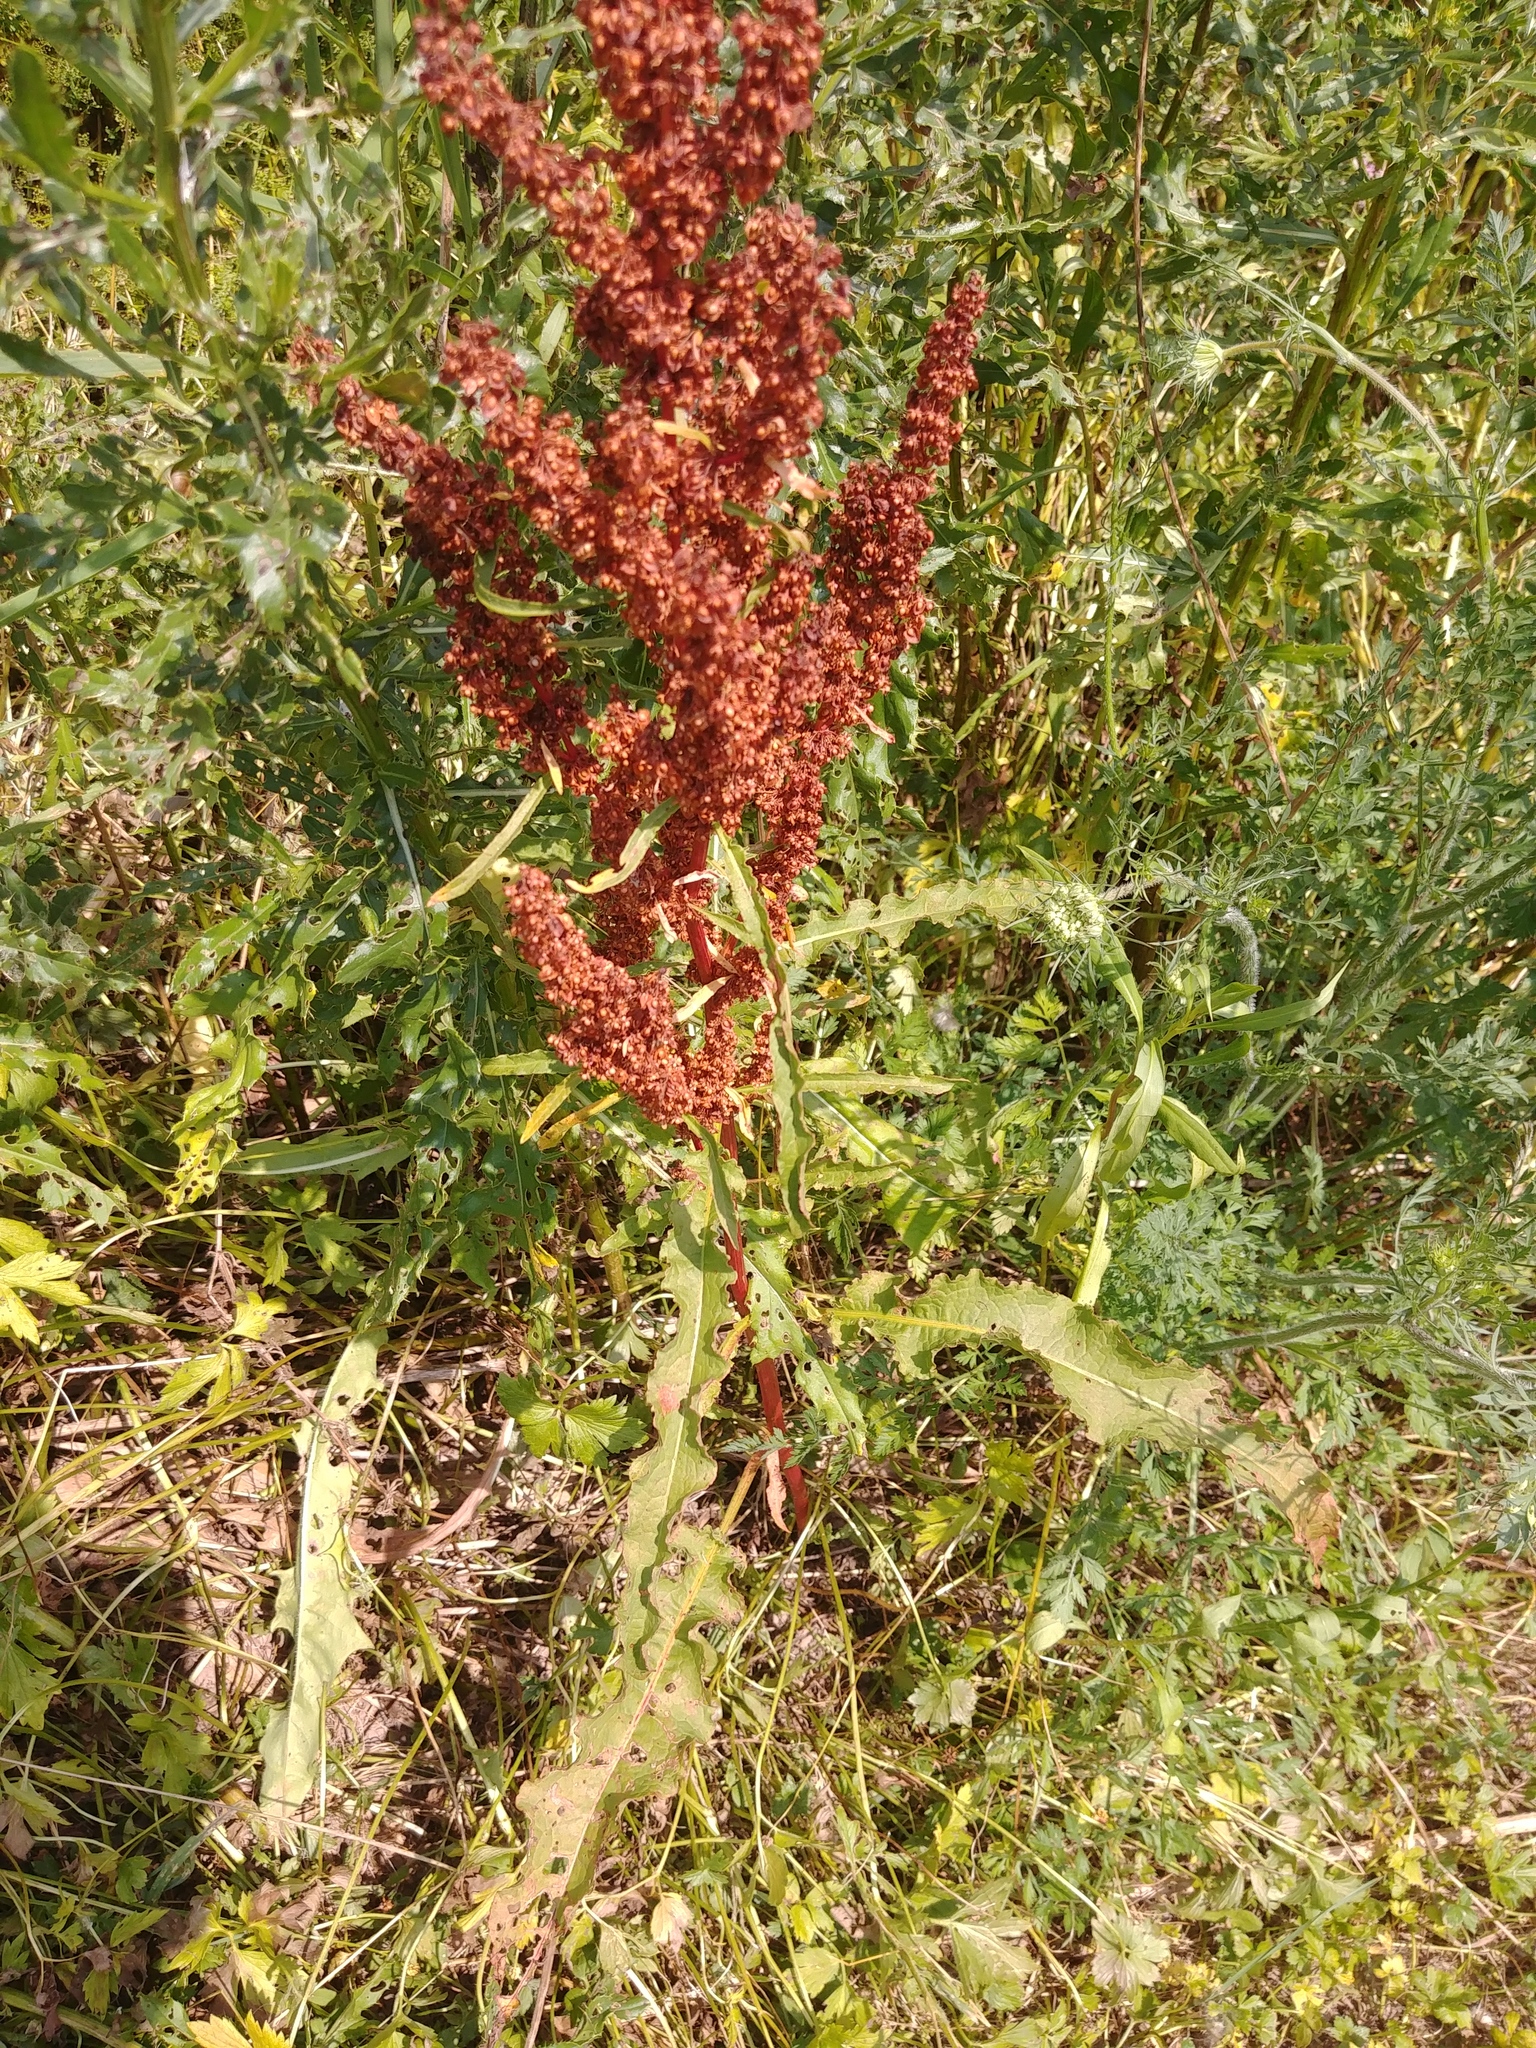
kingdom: Plantae
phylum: Tracheophyta
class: Magnoliopsida
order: Caryophyllales
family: Polygonaceae
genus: Rumex
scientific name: Rumex crispus
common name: Curled dock
